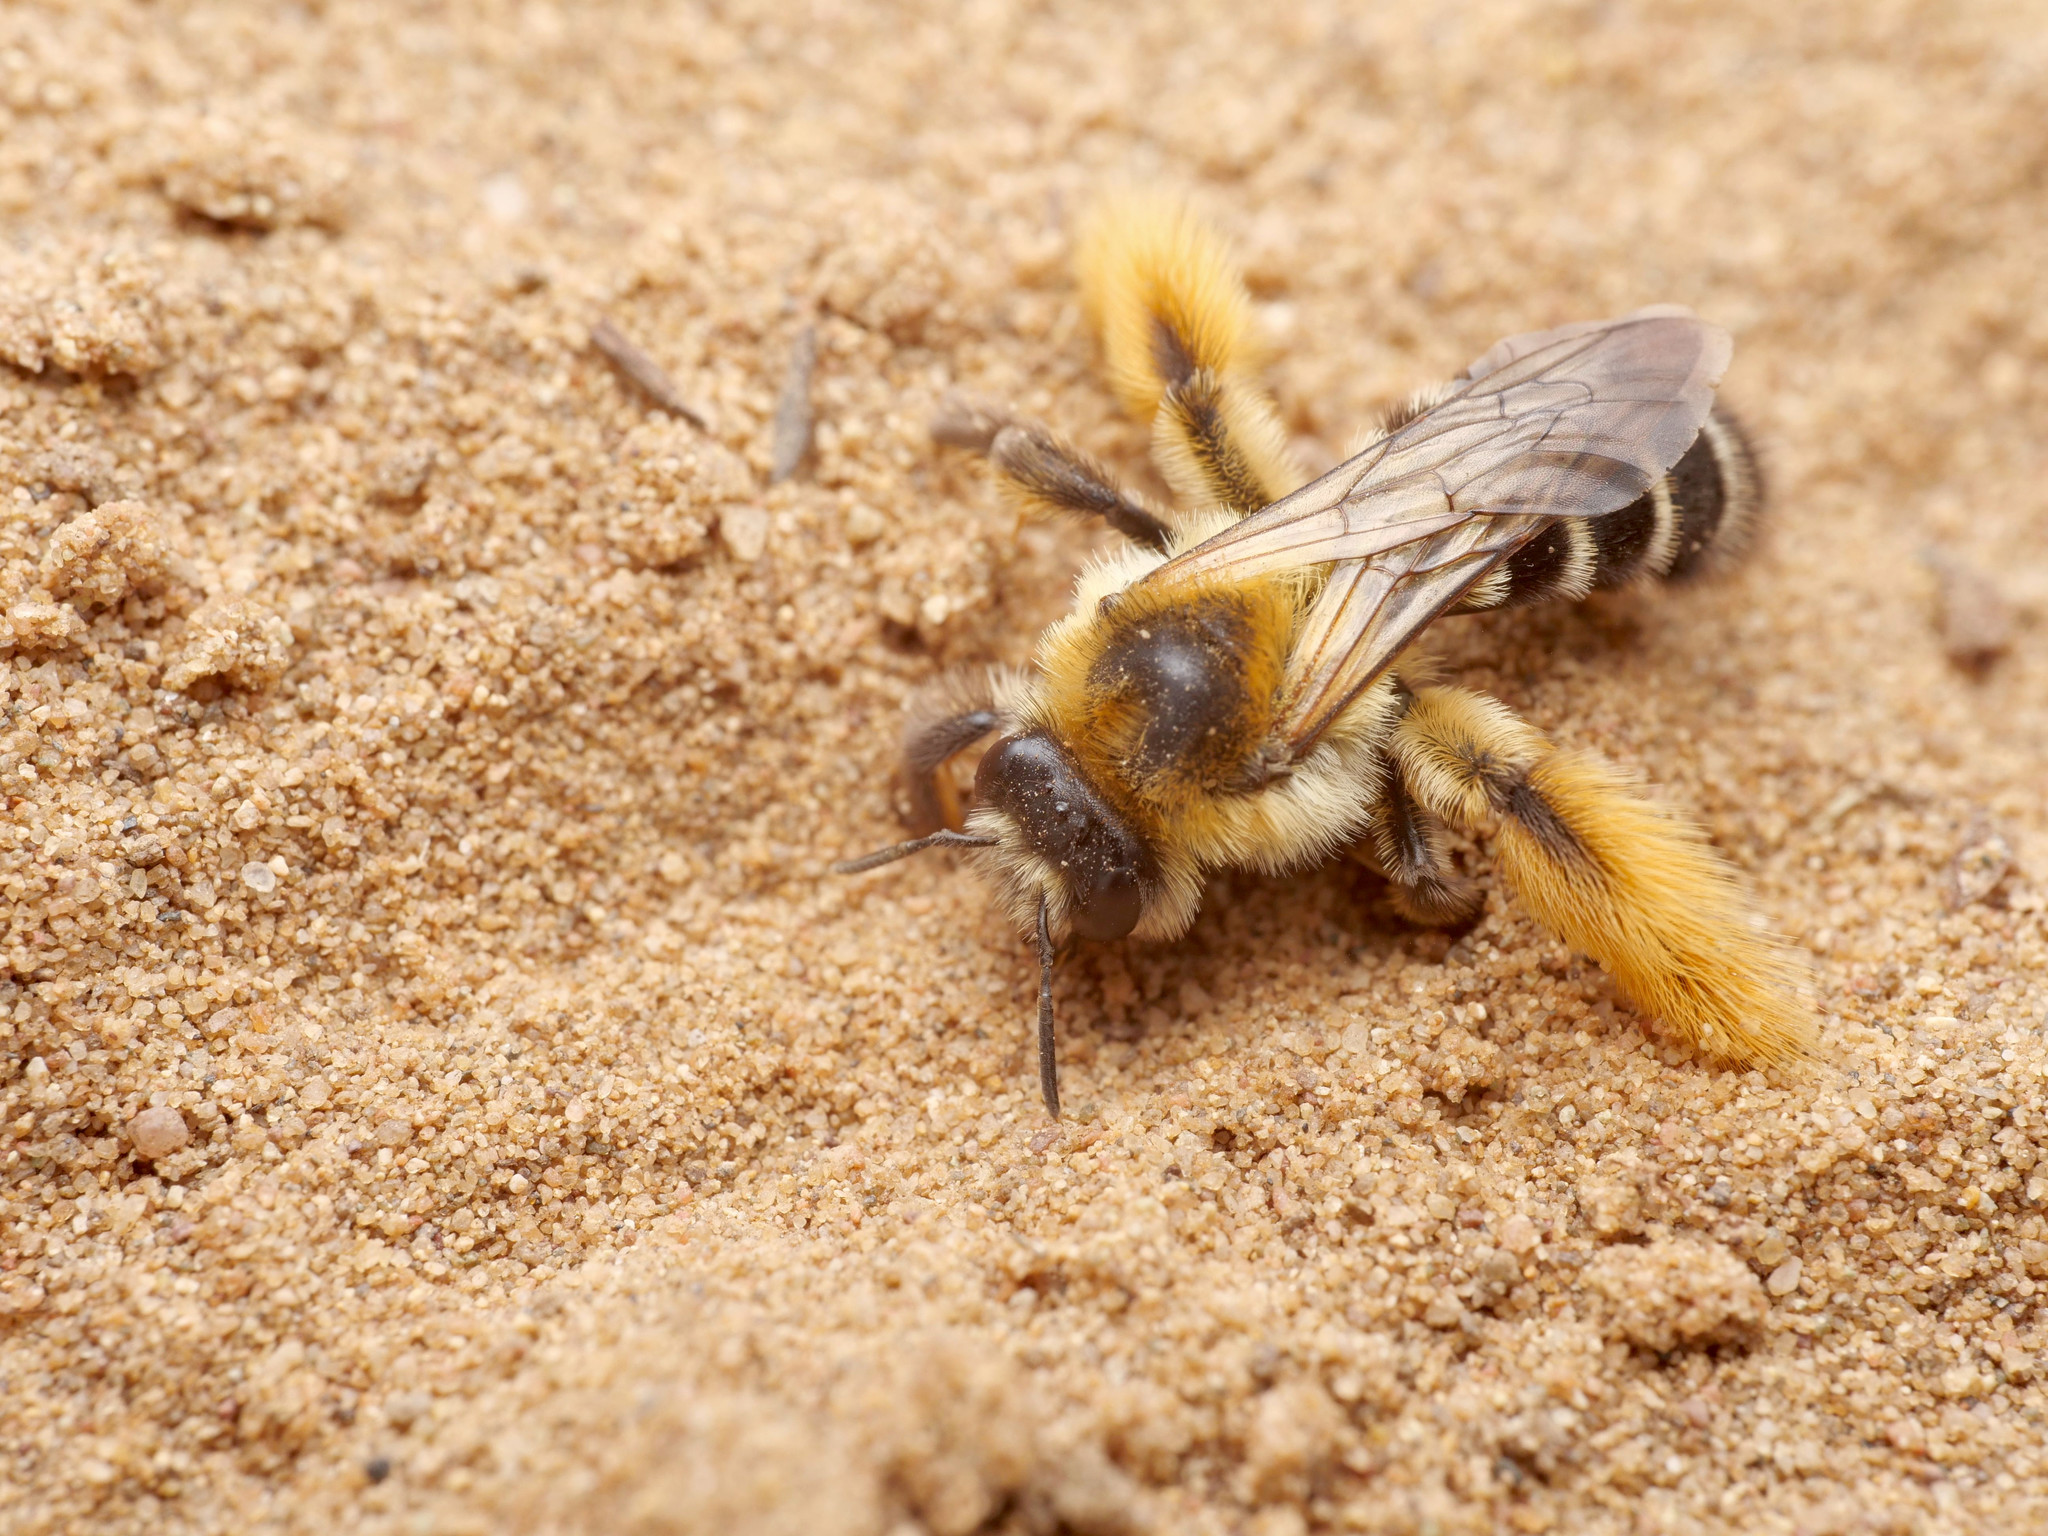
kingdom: Animalia
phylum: Arthropoda
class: Insecta
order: Hymenoptera
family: Melittidae
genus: Dasypoda
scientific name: Dasypoda hirtipes
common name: Pantaloon bee
